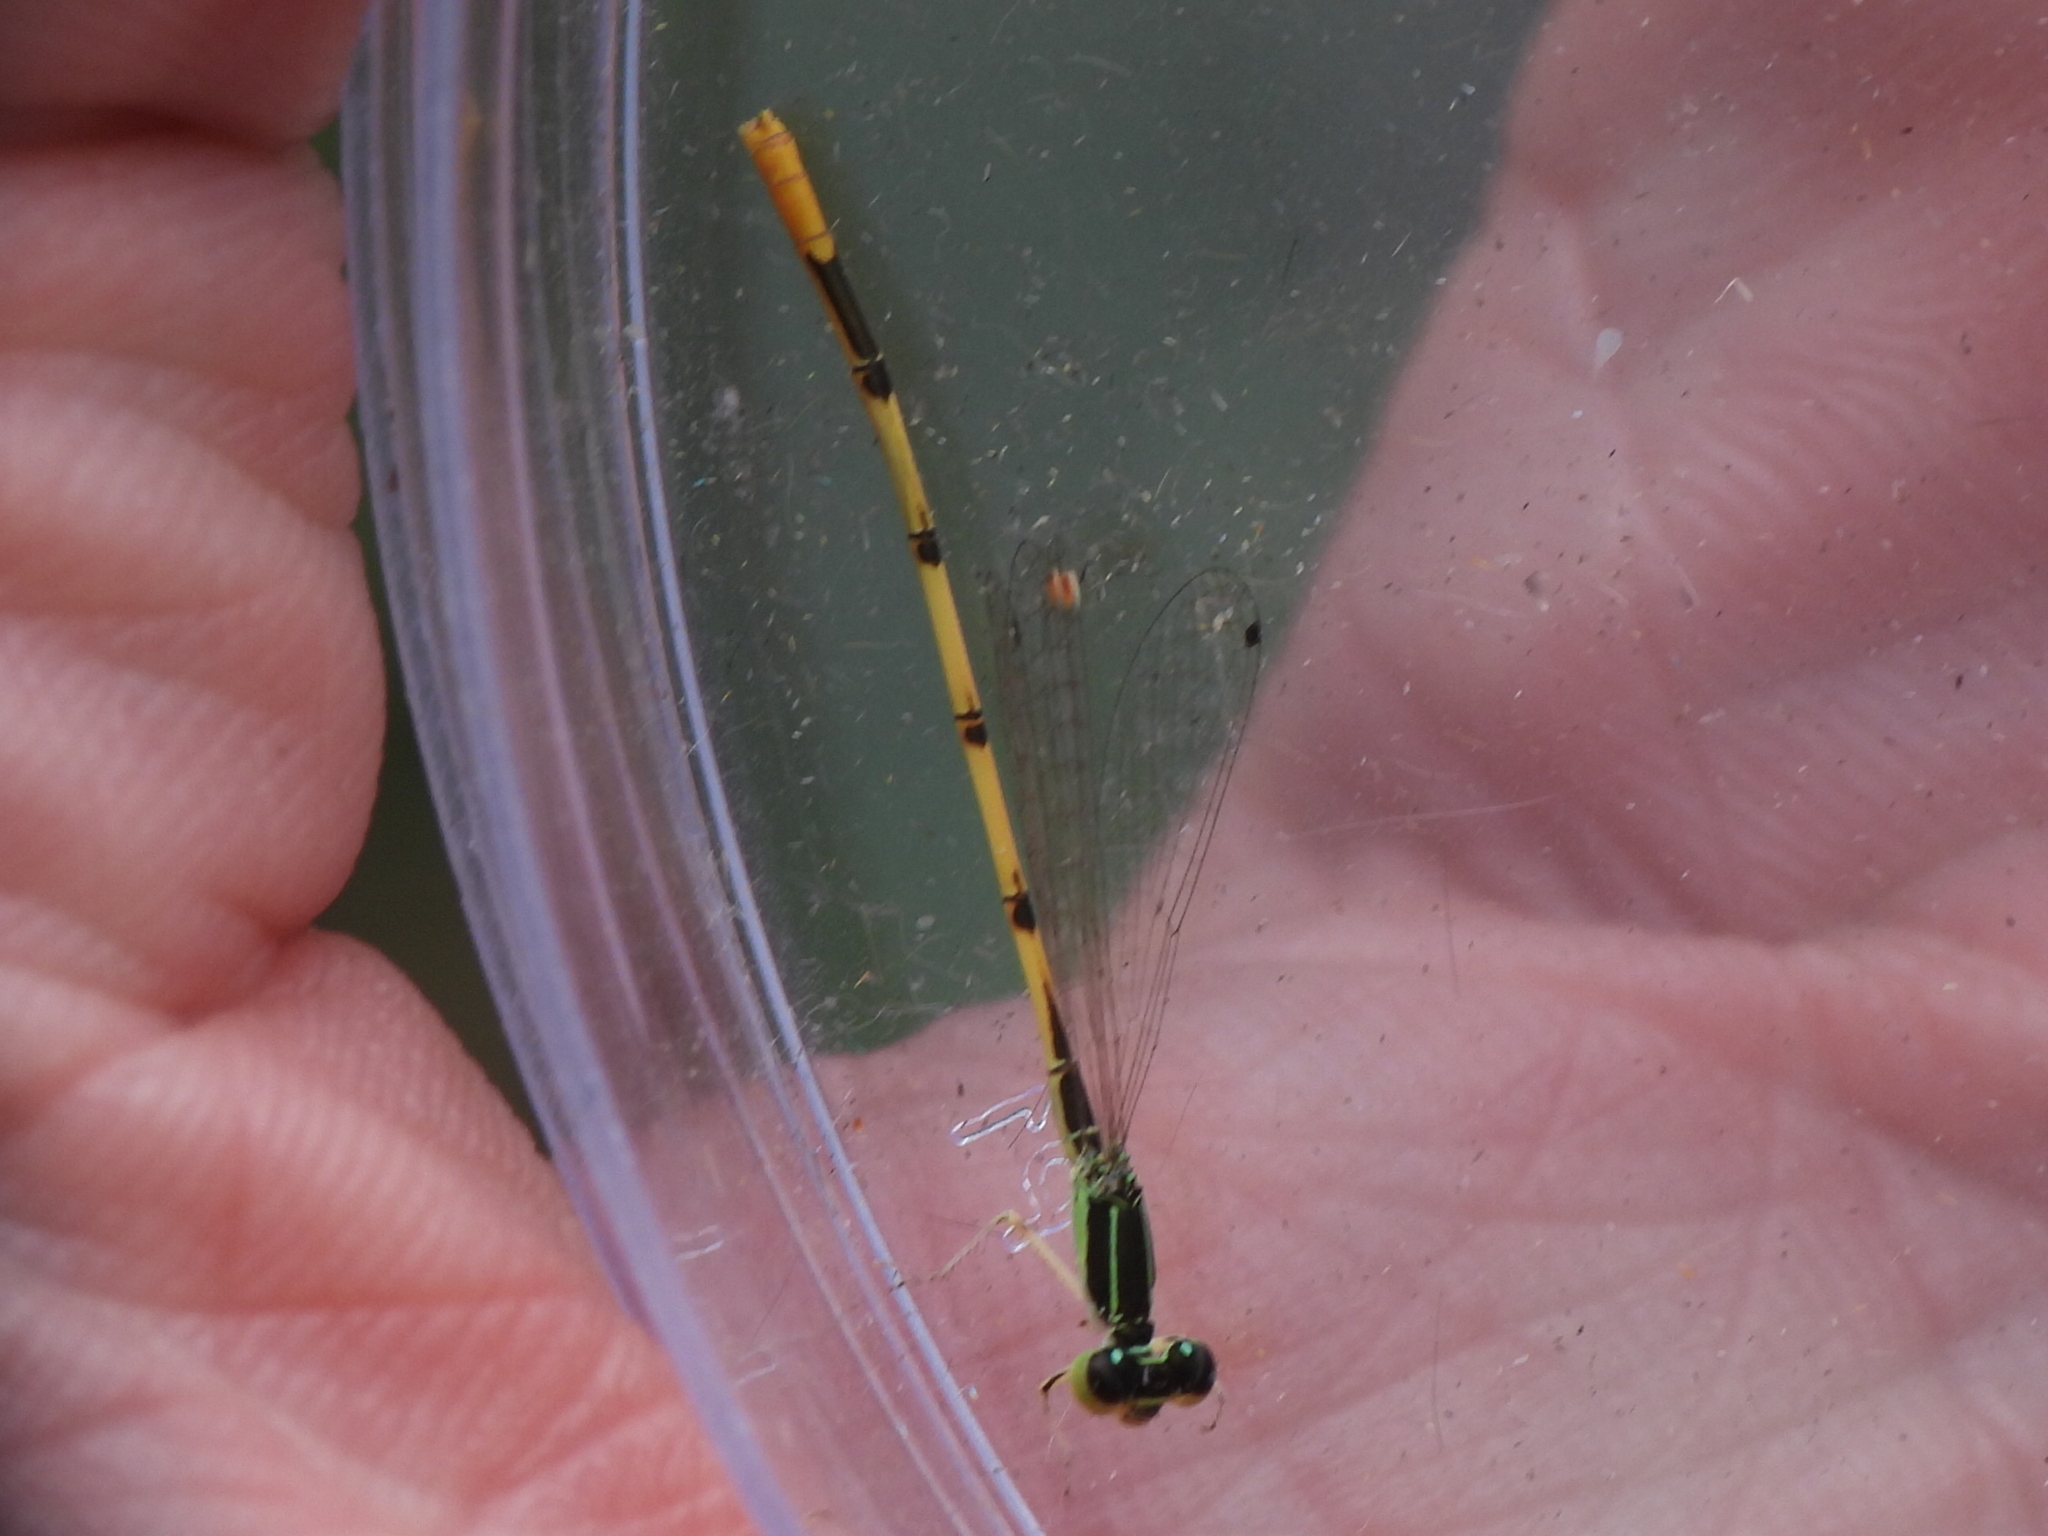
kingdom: Animalia
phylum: Arthropoda
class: Insecta
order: Odonata
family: Coenagrionidae
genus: Ischnura
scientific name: Ischnura hastata
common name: Citrine forktail
